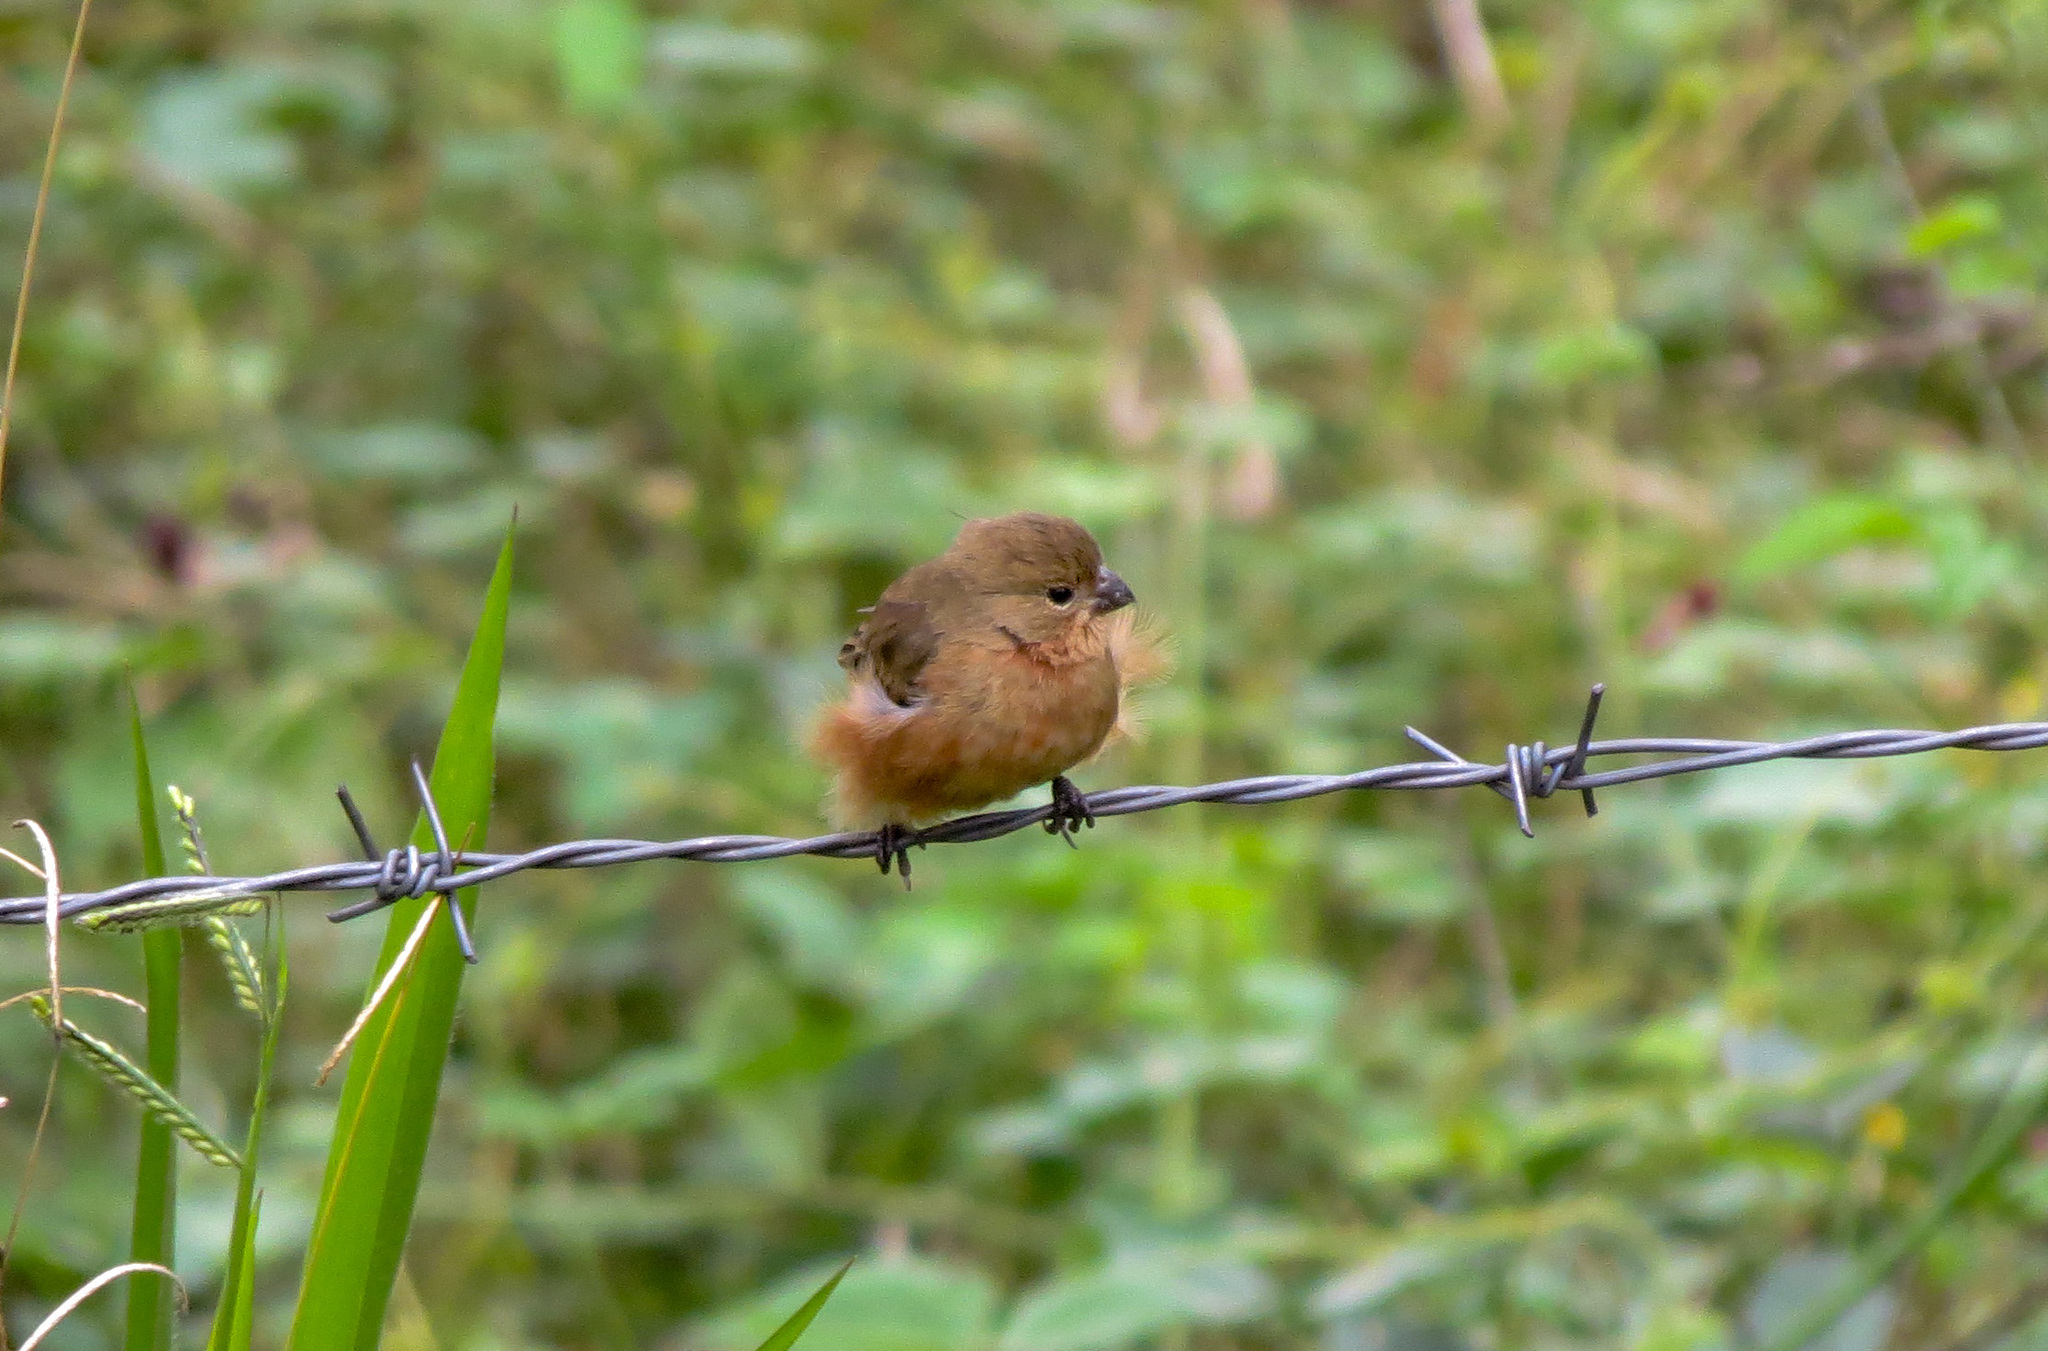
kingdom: Animalia
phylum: Chordata
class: Aves
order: Passeriformes
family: Thraupidae
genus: Sporophila
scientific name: Sporophila minuta
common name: Ruddy-breasted seedeater
